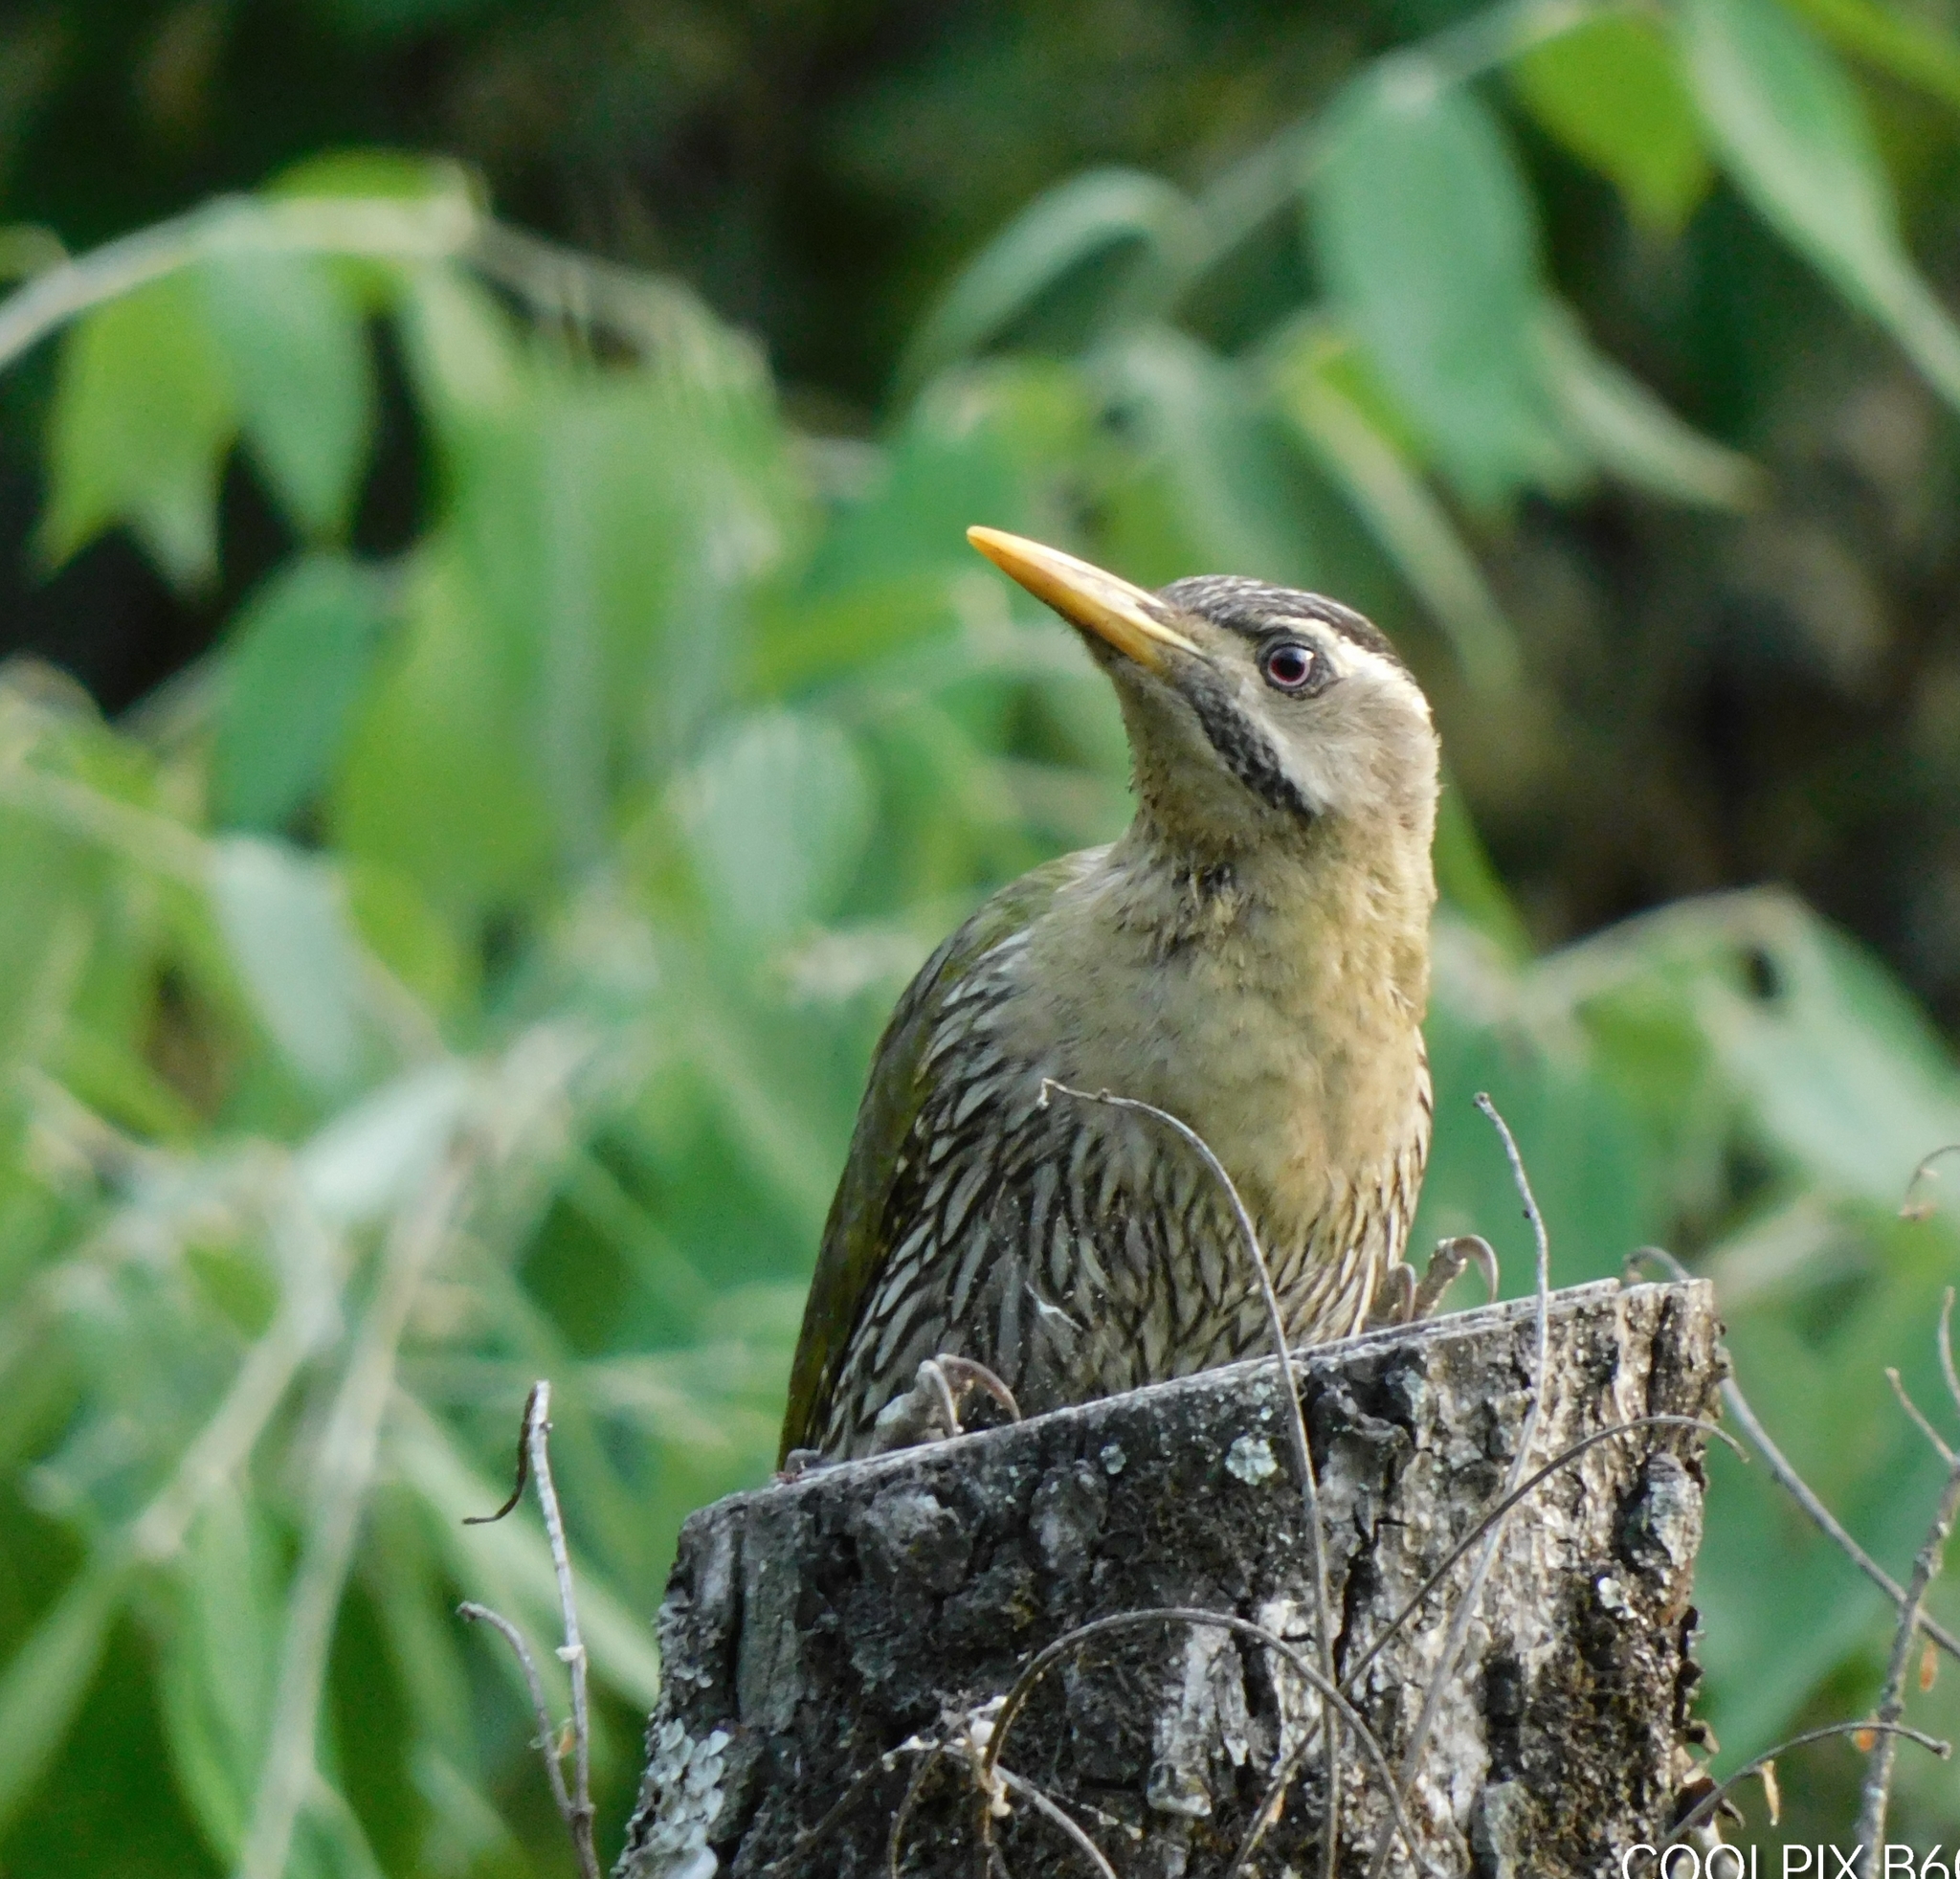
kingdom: Animalia
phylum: Chordata
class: Aves
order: Piciformes
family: Picidae
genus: Picus
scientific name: Picus squamatus
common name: Scaly-bellied woodpecker
